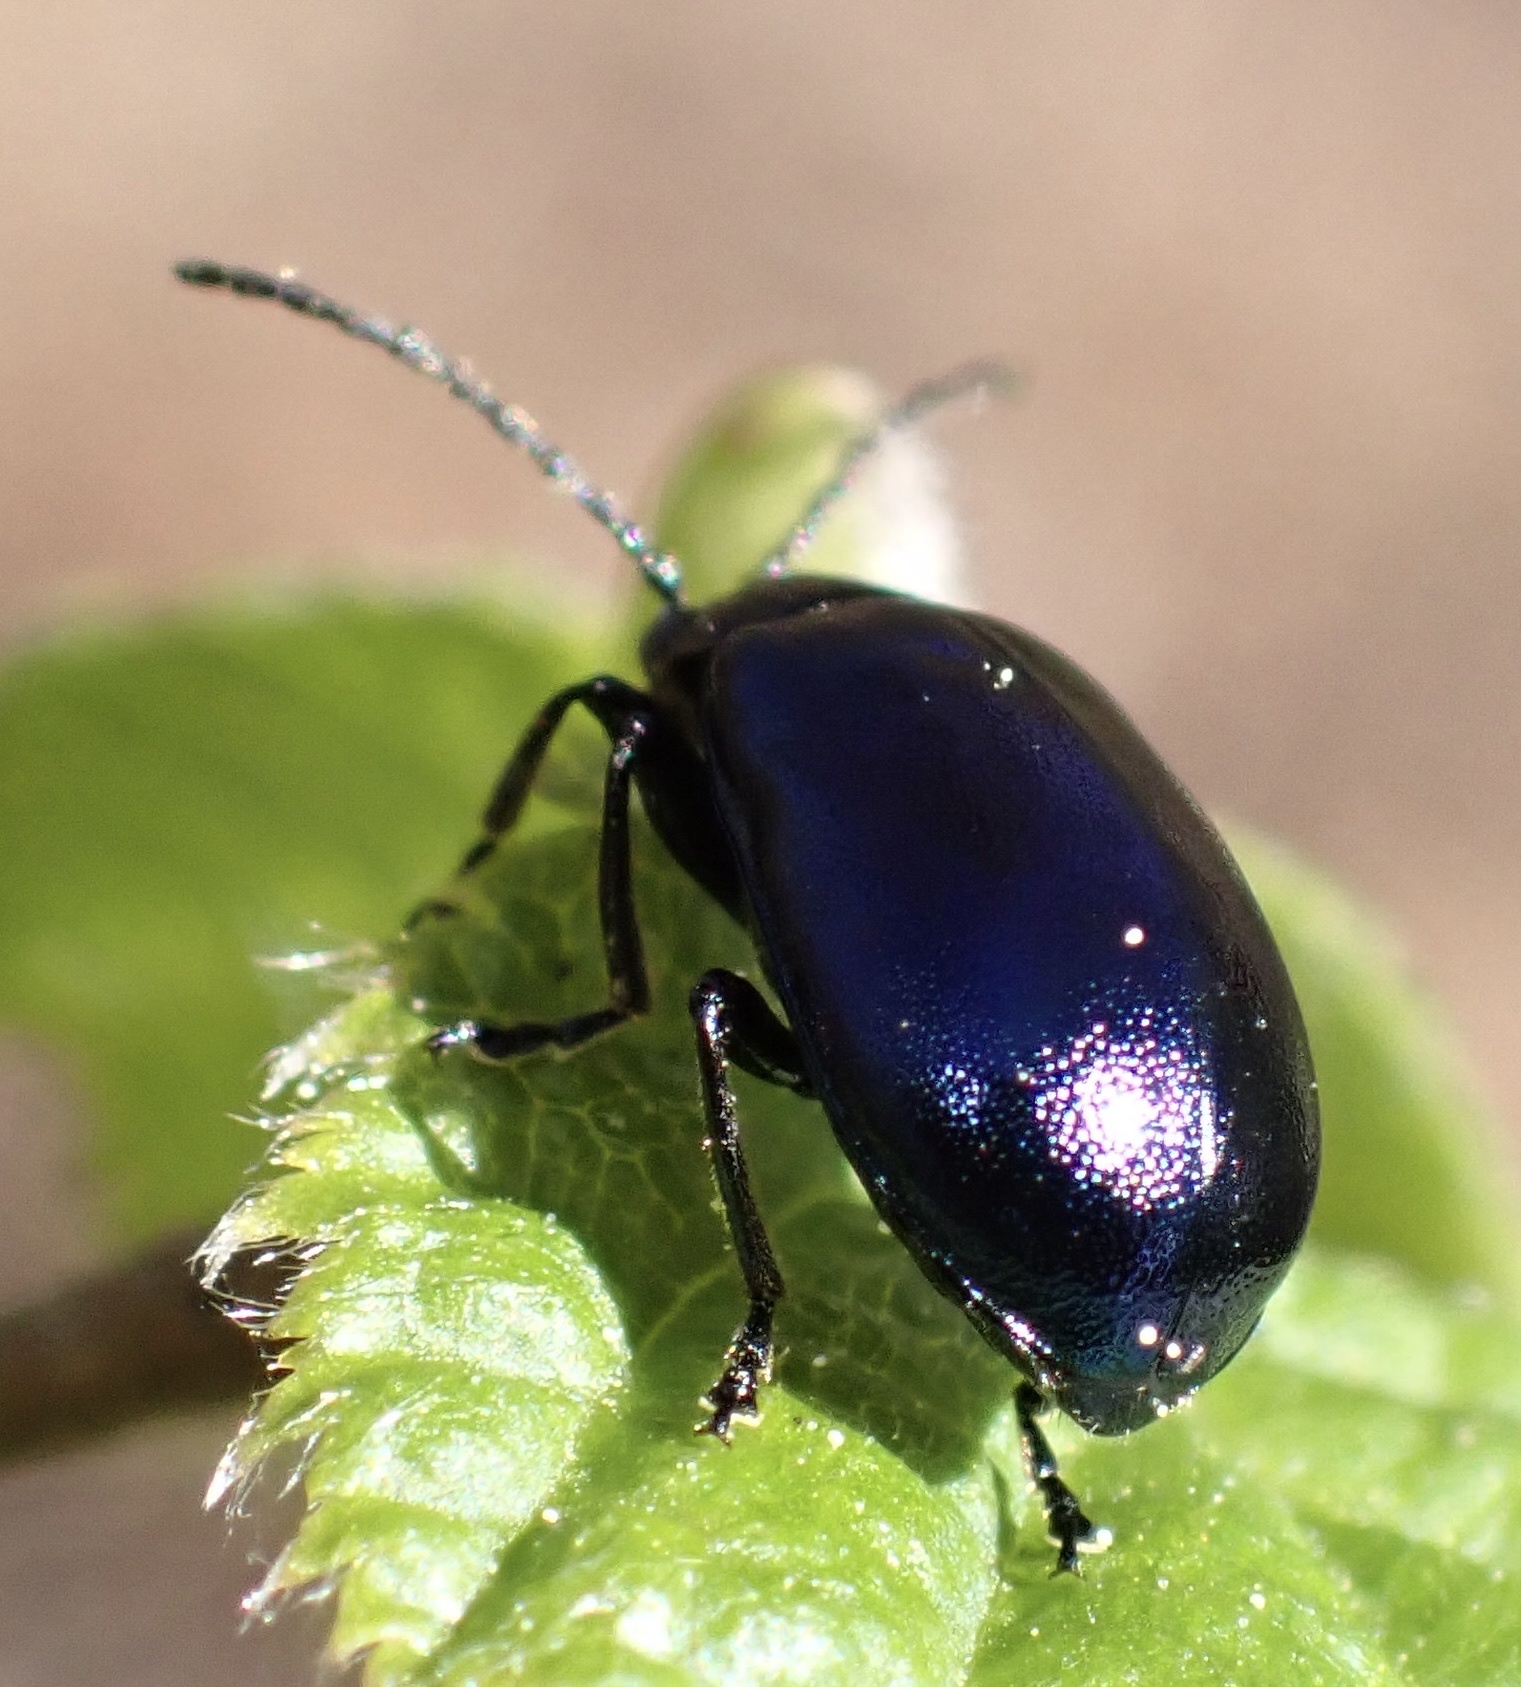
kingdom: Animalia
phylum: Arthropoda
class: Insecta
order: Coleoptera
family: Chrysomelidae
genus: Agelastica
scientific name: Agelastica alni
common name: Alder leaf beetle
